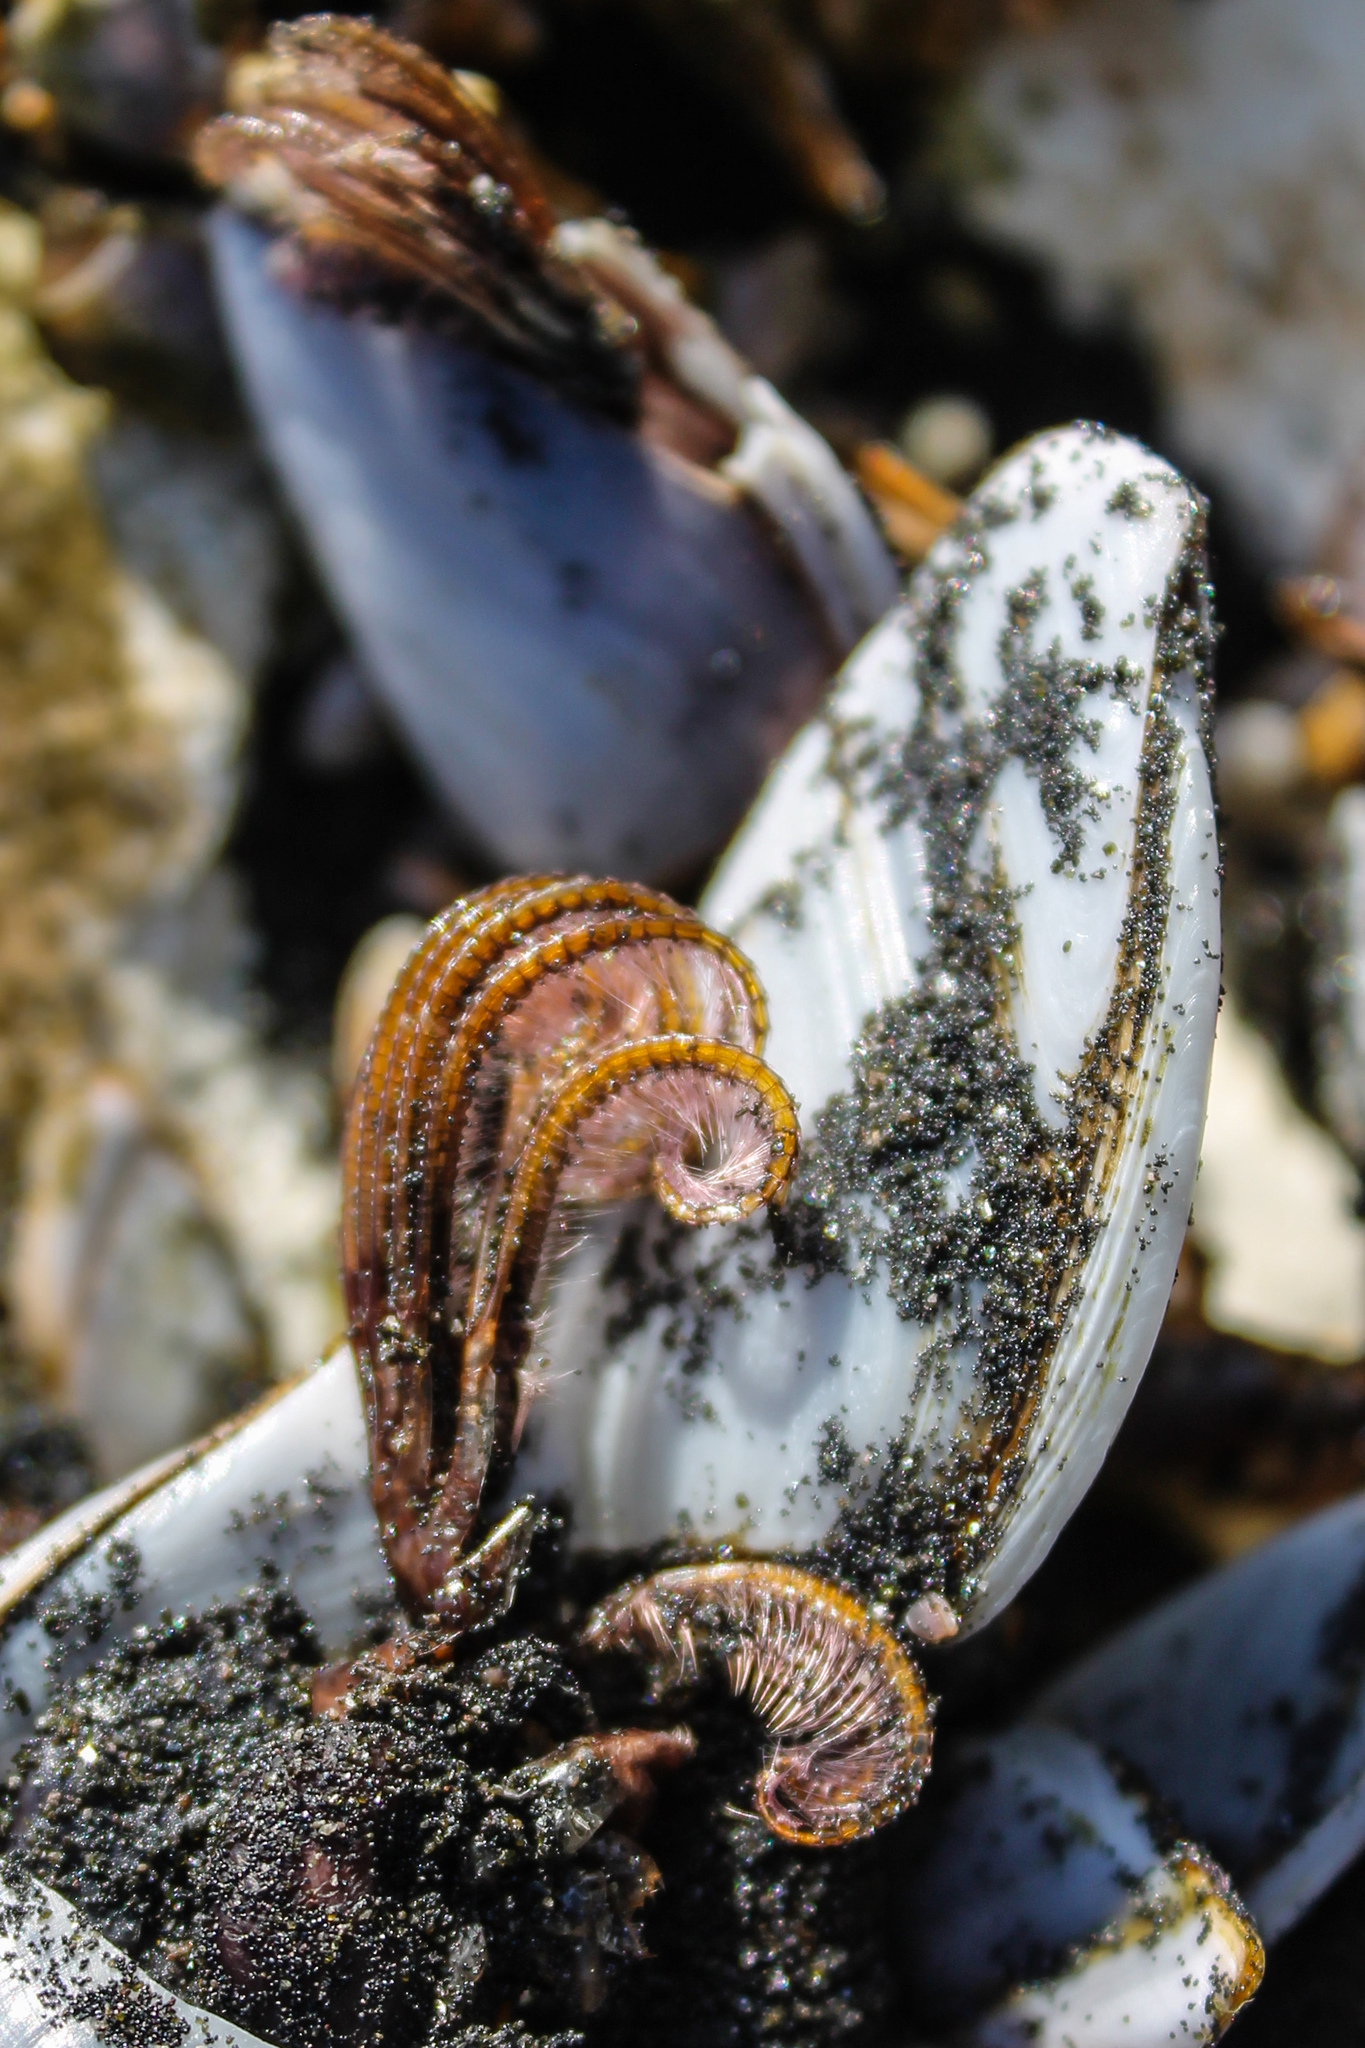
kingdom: Animalia
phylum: Arthropoda
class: Maxillopoda
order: Pedunculata
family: Lepadidae
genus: Lepas
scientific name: Lepas anserifera
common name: Goose barnacle
